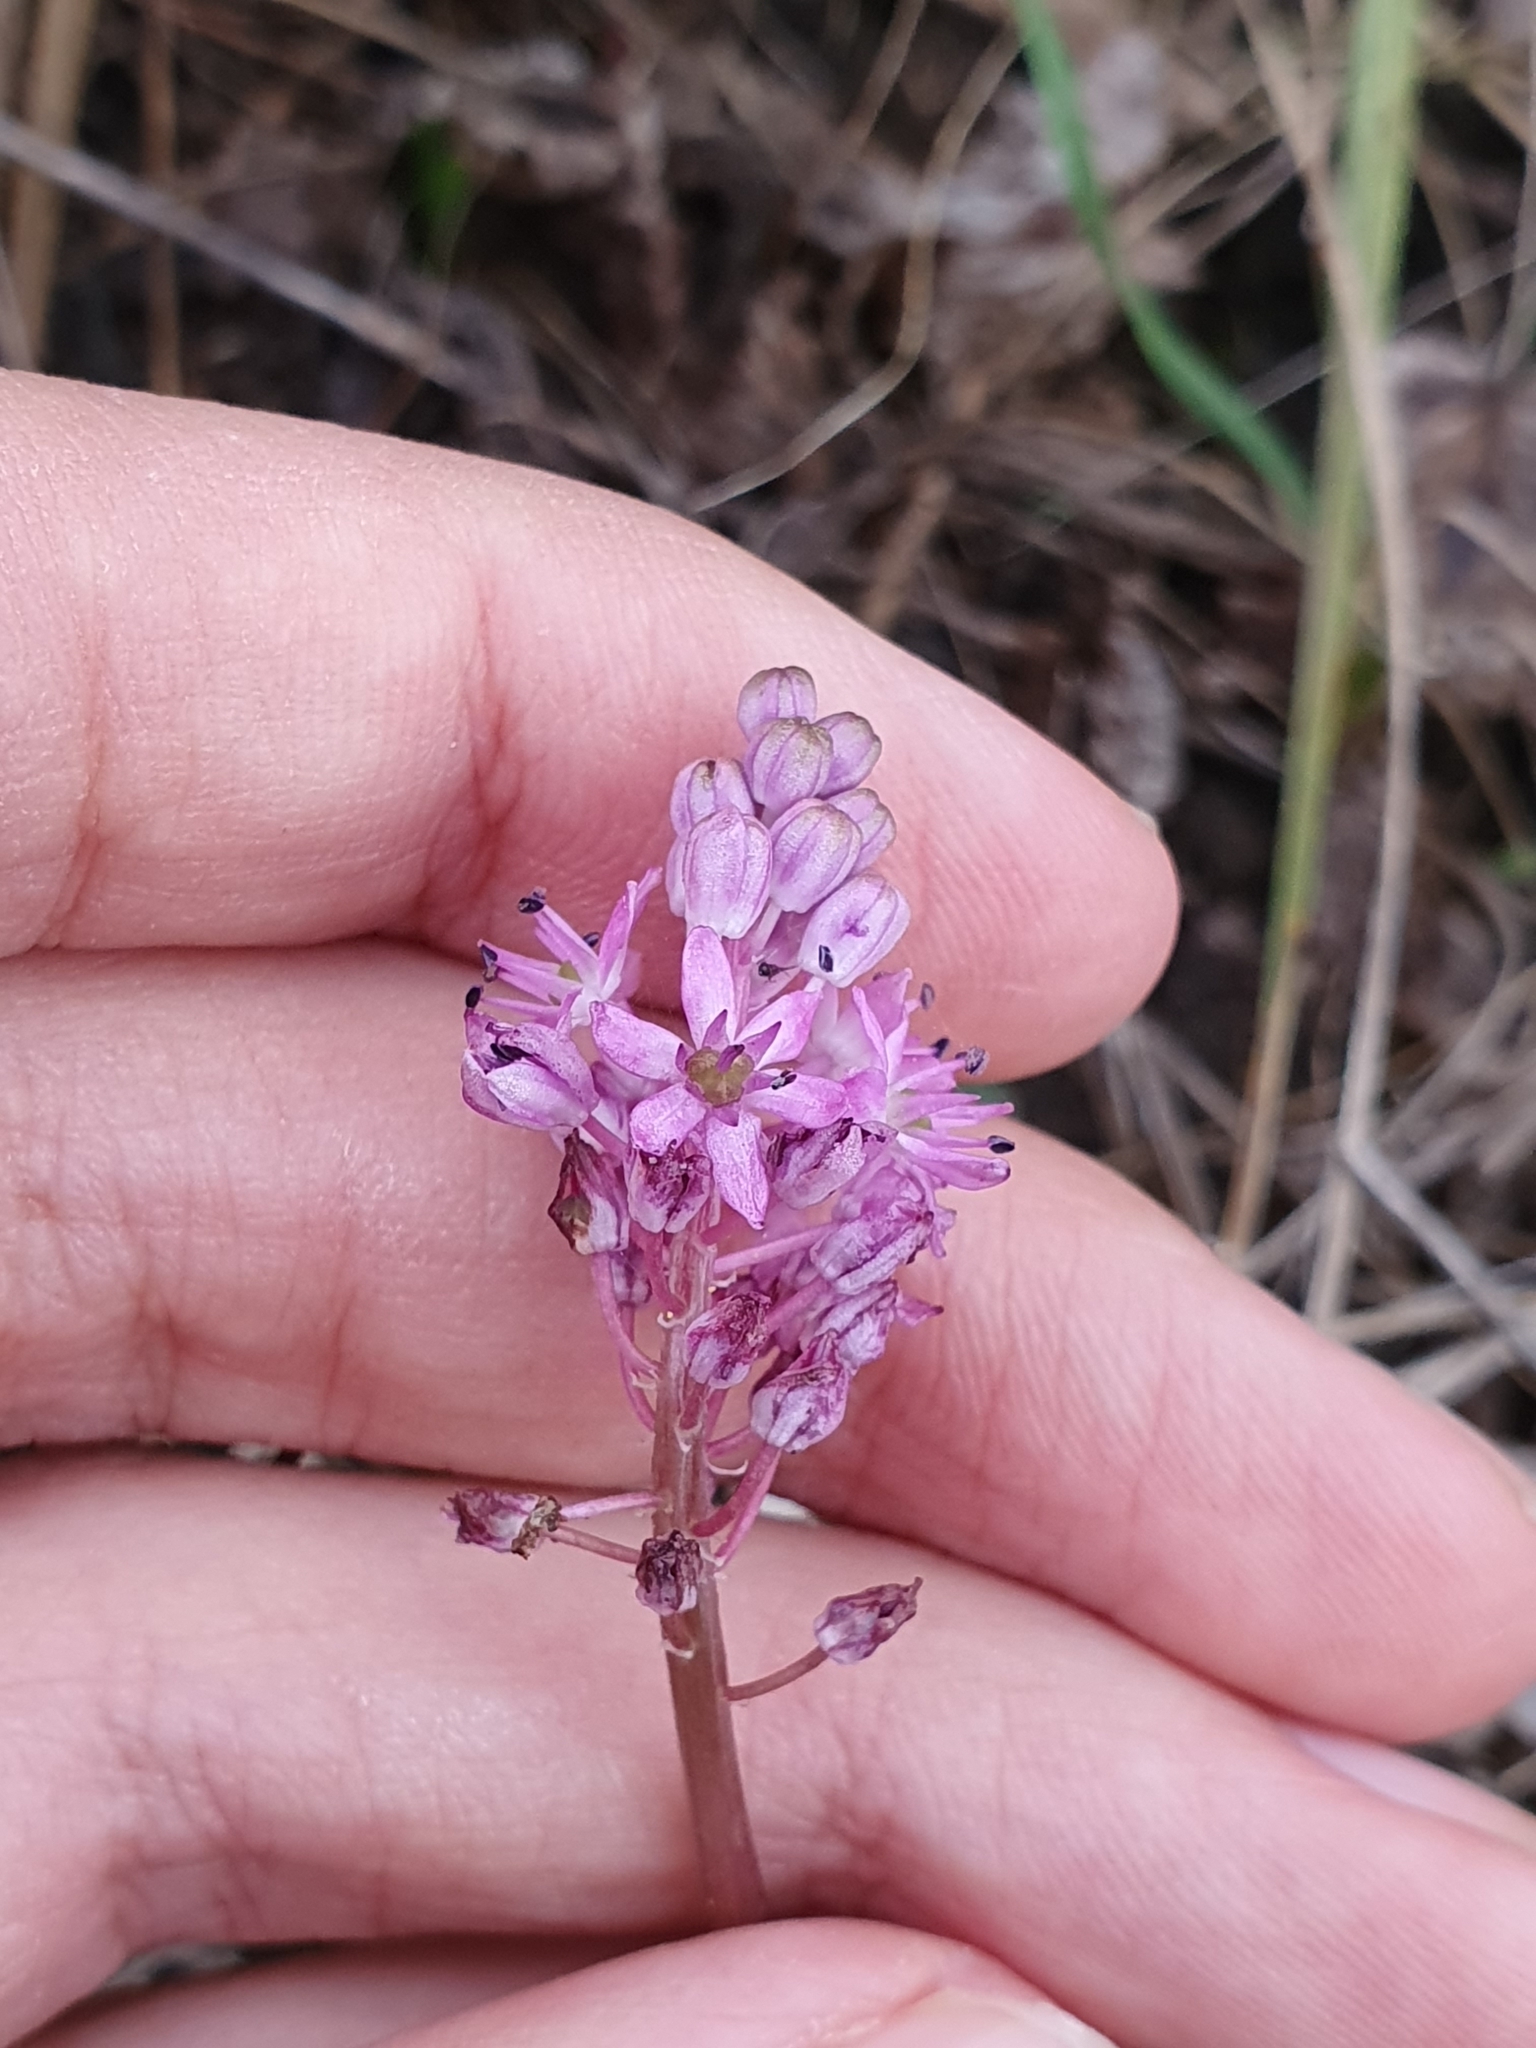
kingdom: Plantae
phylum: Tracheophyta
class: Liliopsida
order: Asparagales
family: Asparagaceae
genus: Barnardia
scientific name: Barnardia numidica
